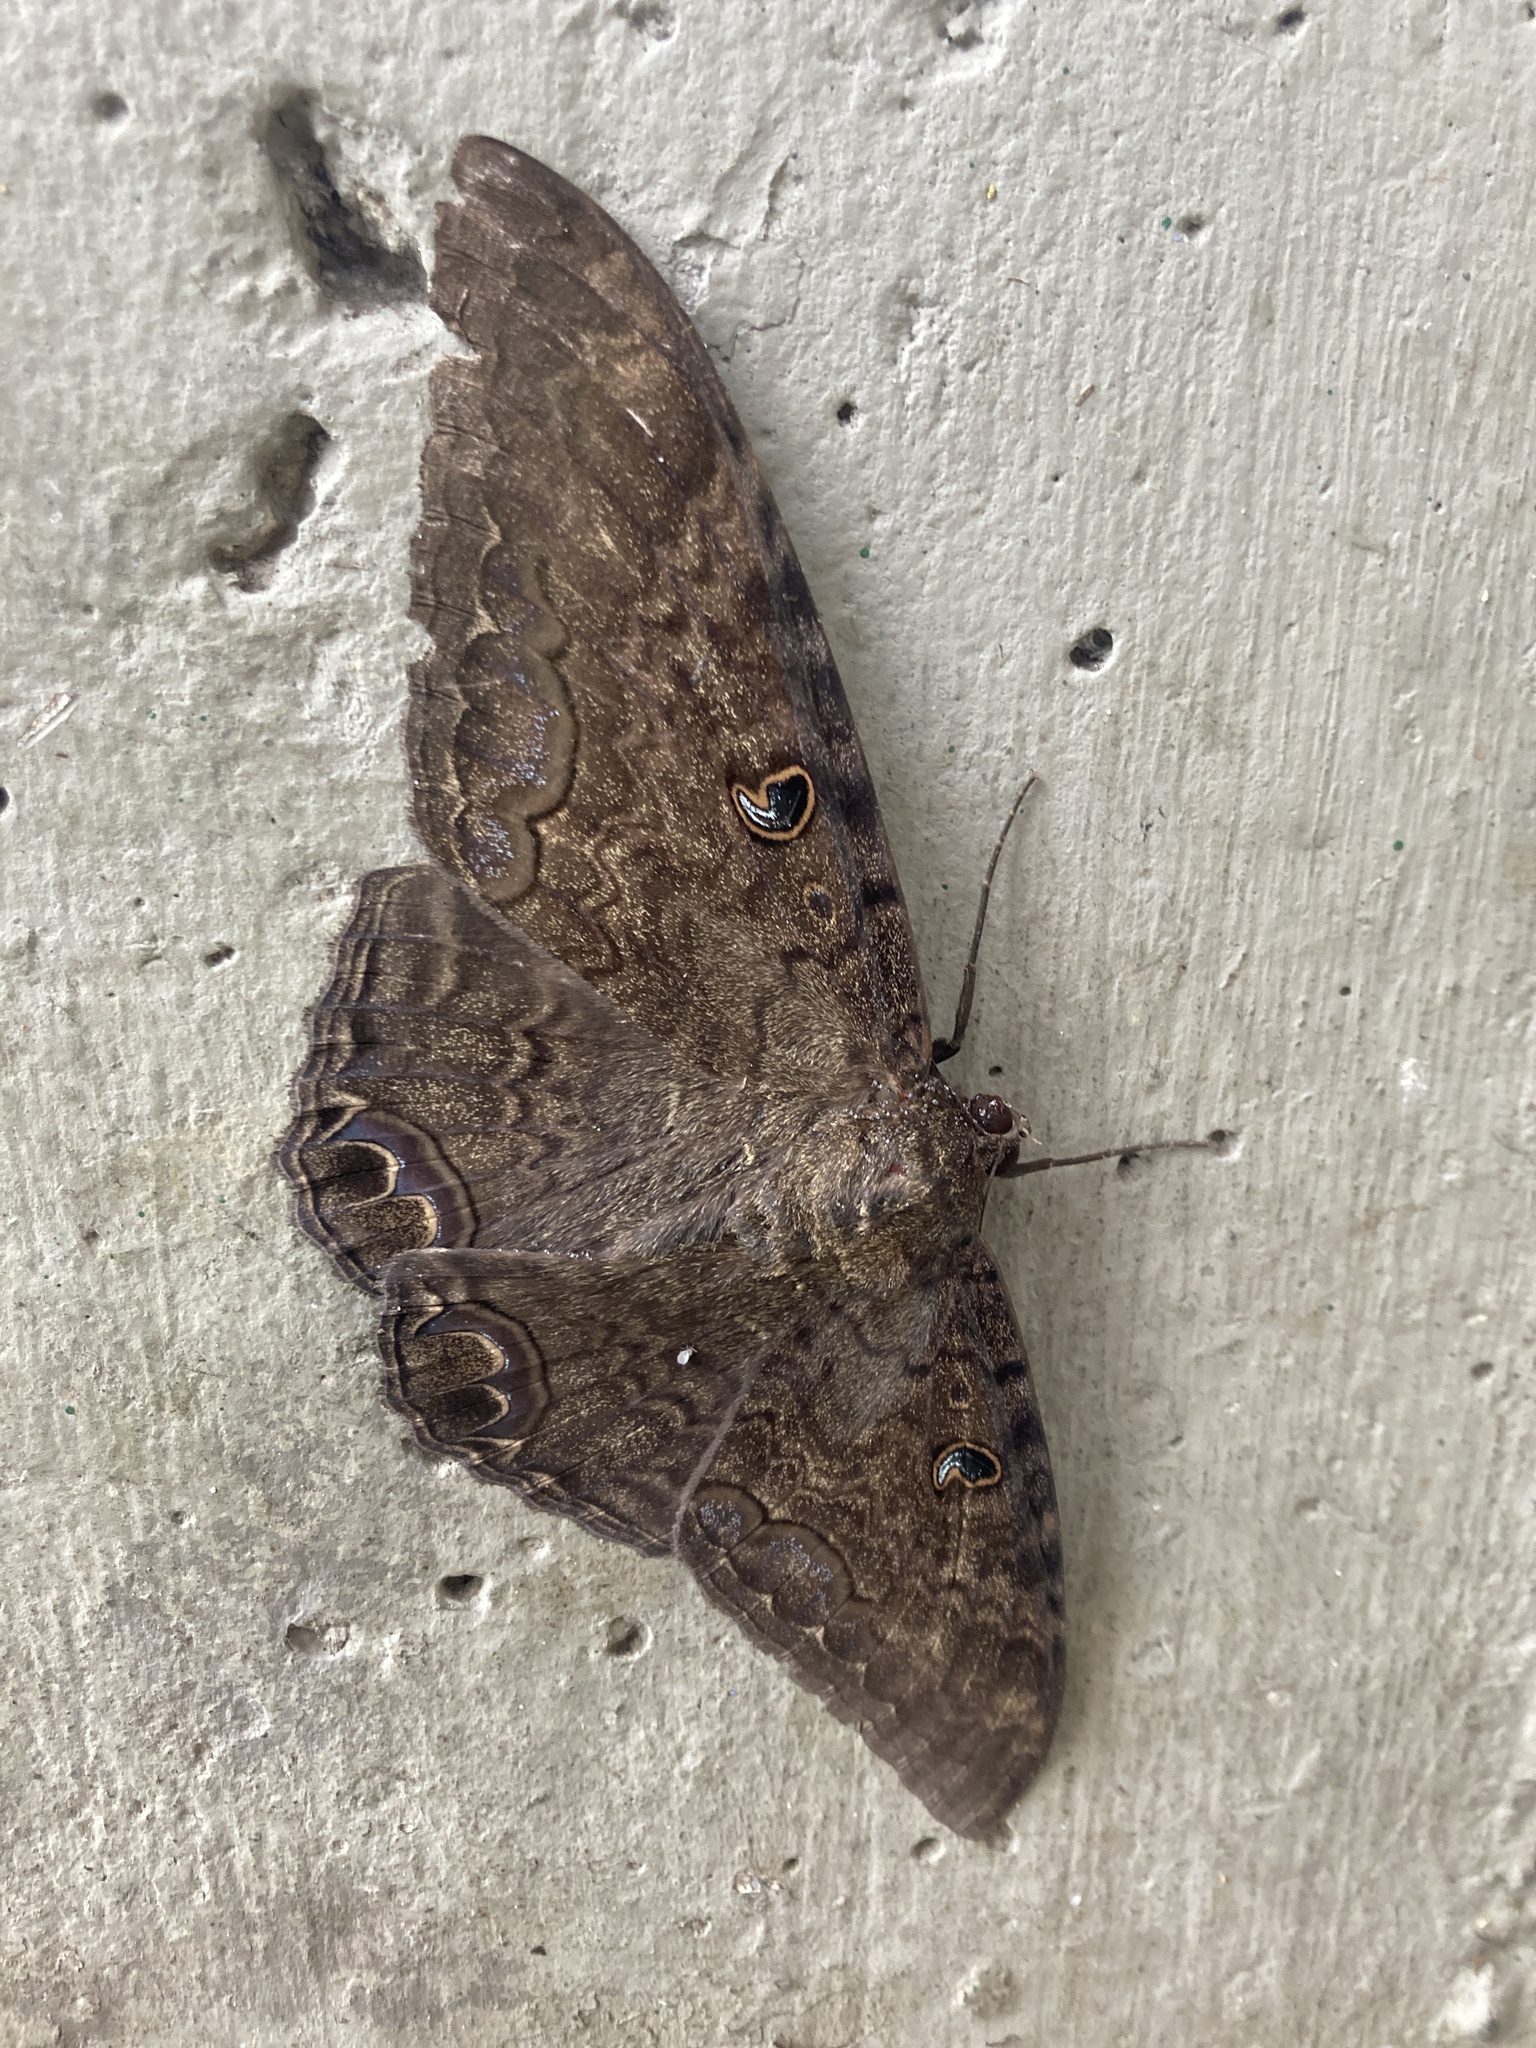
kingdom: Animalia
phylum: Arthropoda
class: Insecta
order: Lepidoptera
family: Erebidae
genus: Ascalapha
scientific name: Ascalapha odorata
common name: Black witch
